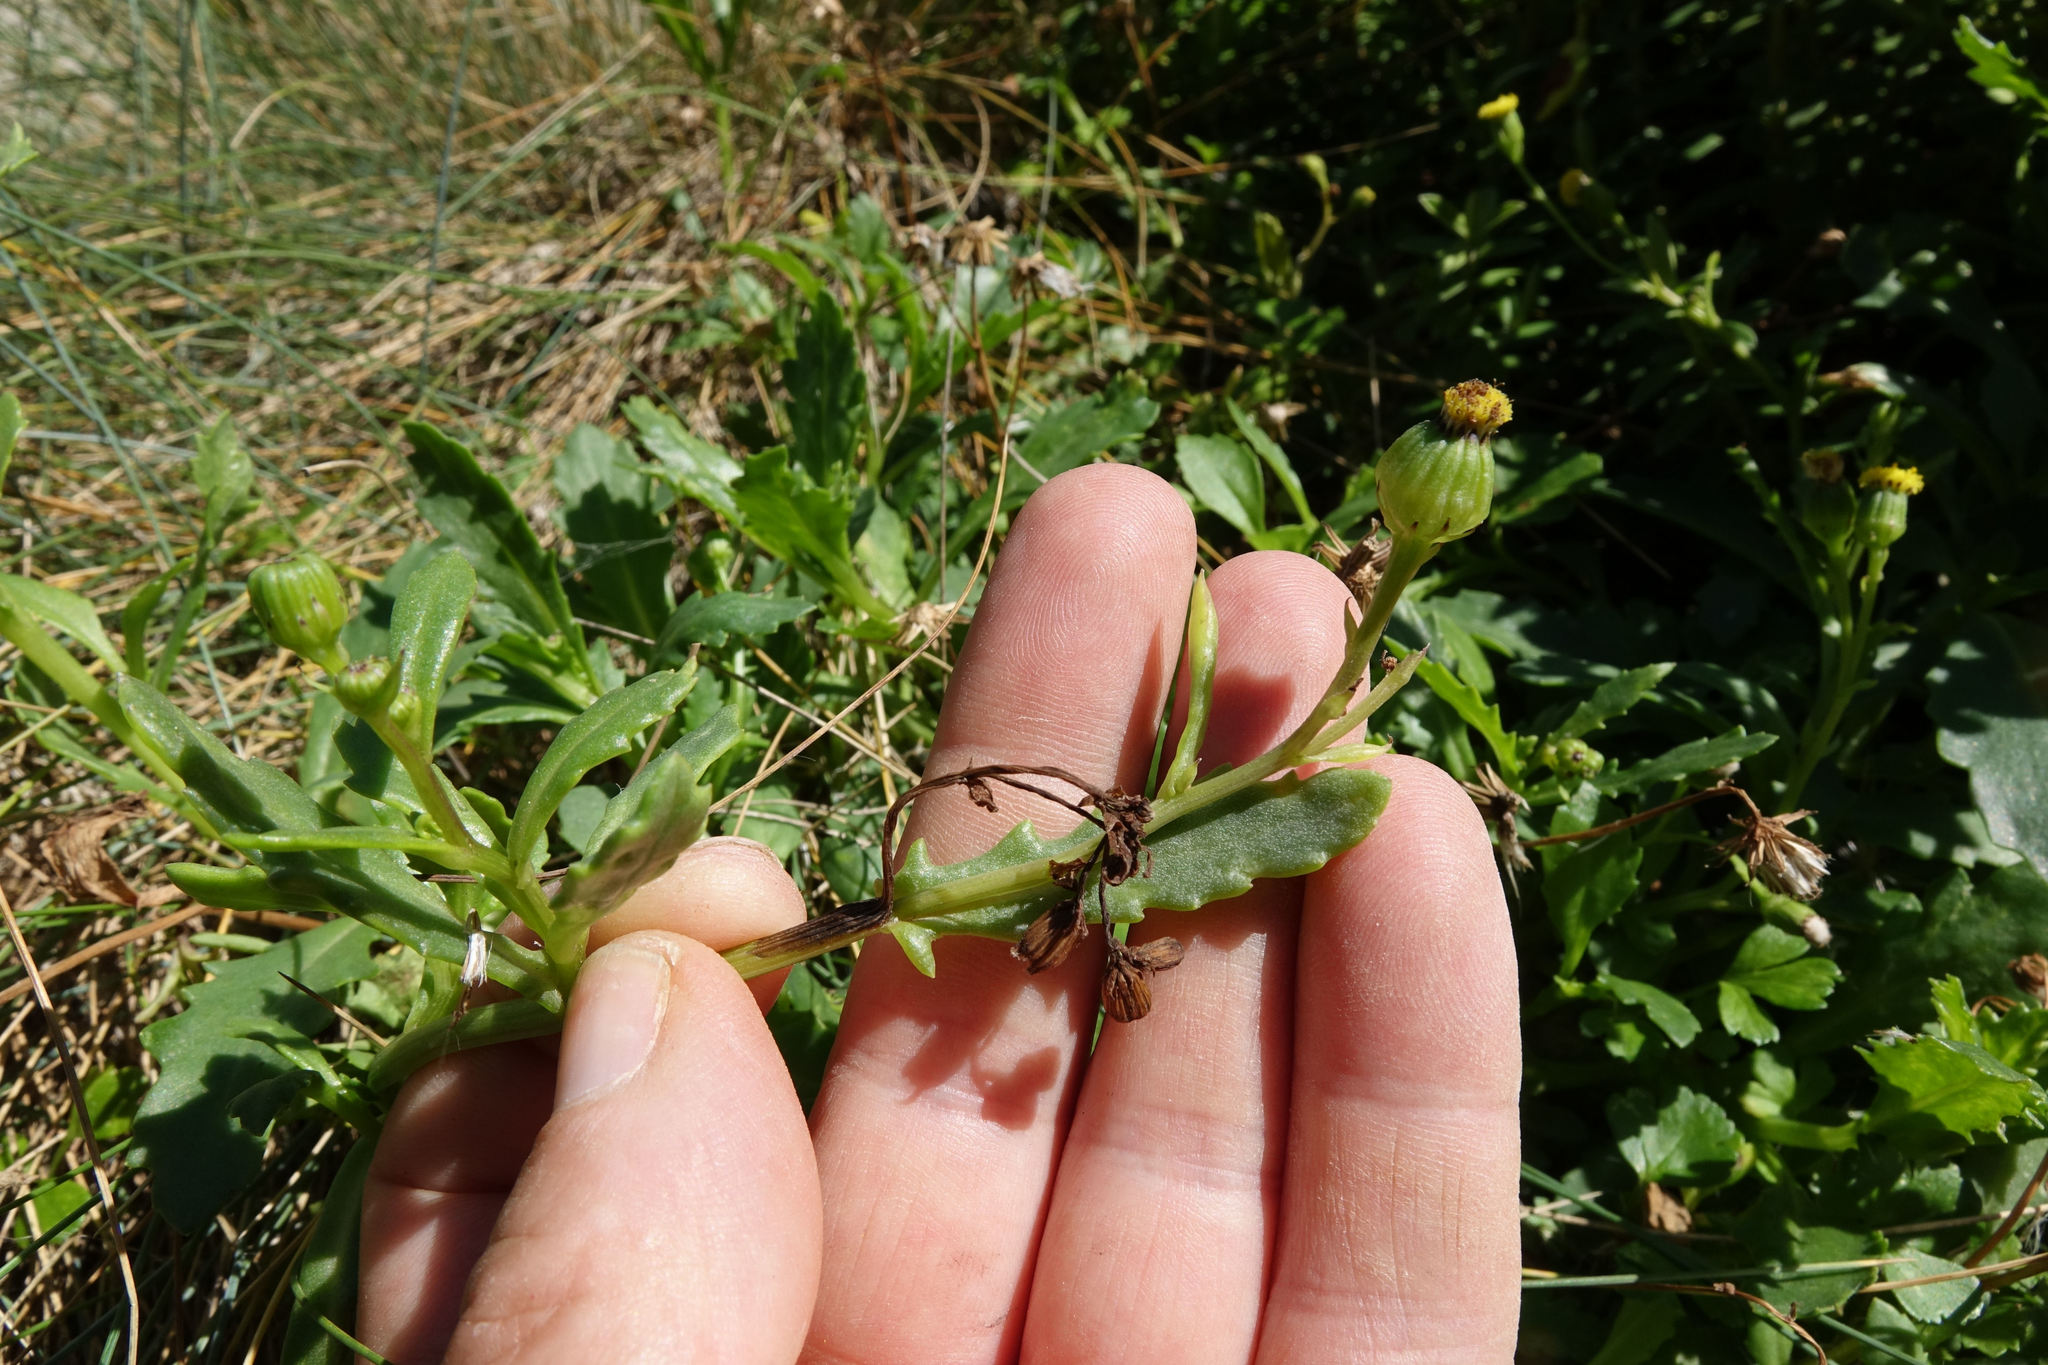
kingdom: Plantae
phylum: Tracheophyta
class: Magnoliopsida
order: Asterales
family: Asteraceae
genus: Senecio
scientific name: Senecio matatini
